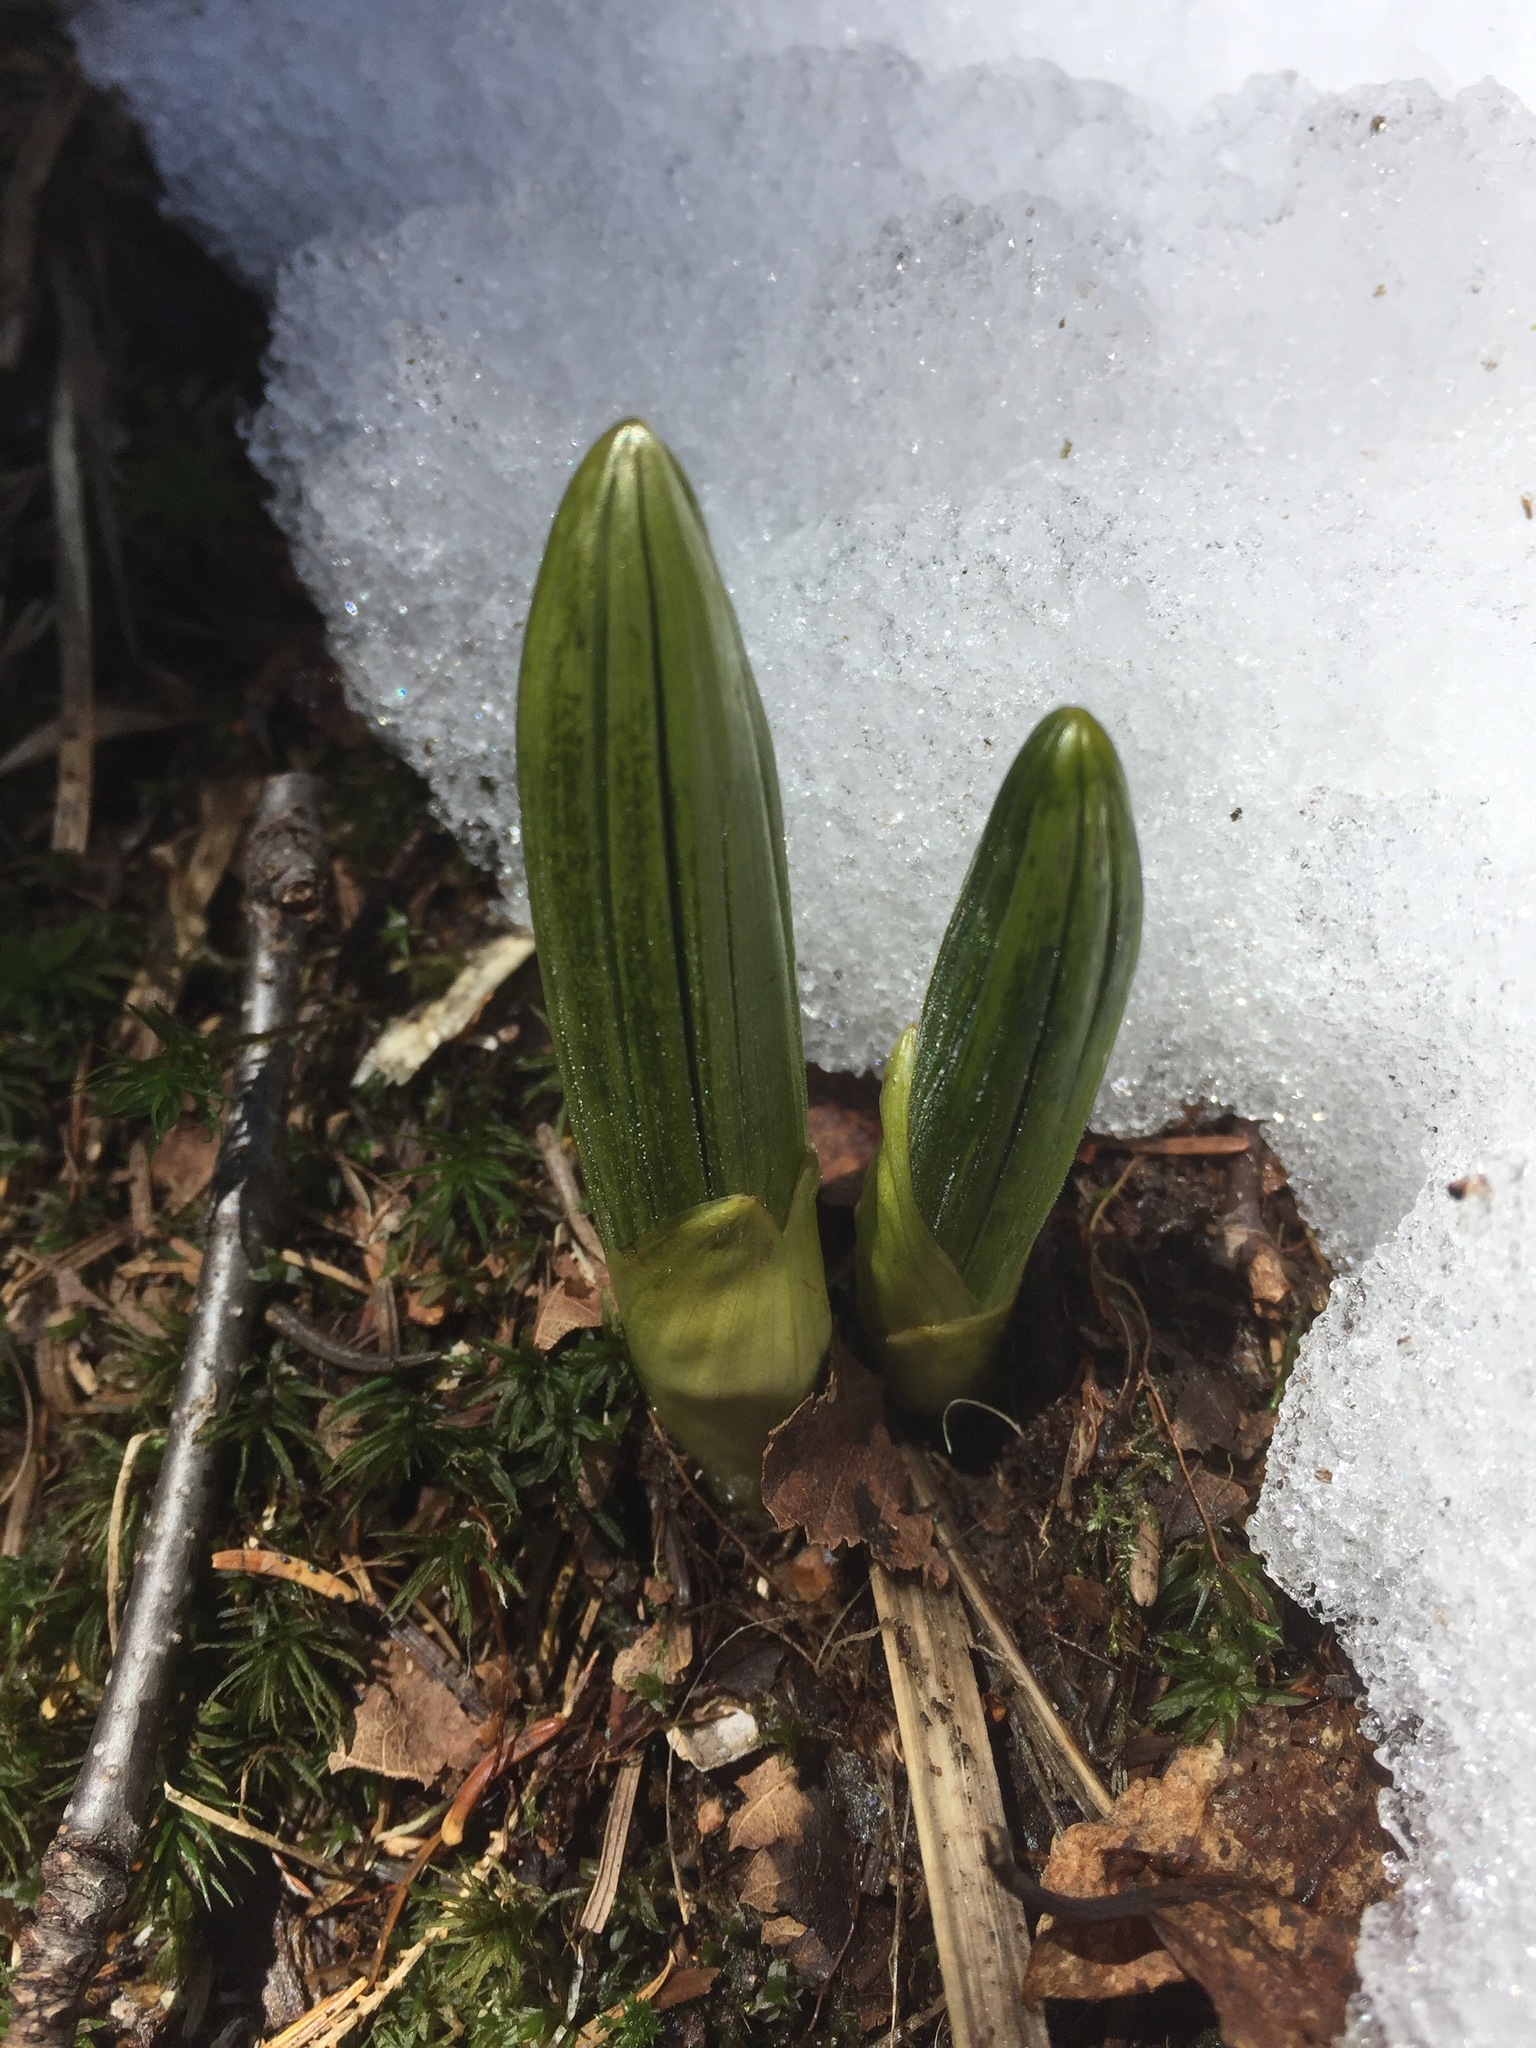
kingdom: Plantae
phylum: Tracheophyta
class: Liliopsida
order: Liliales
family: Melanthiaceae
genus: Veratrum
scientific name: Veratrum viride
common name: American false hellebore
